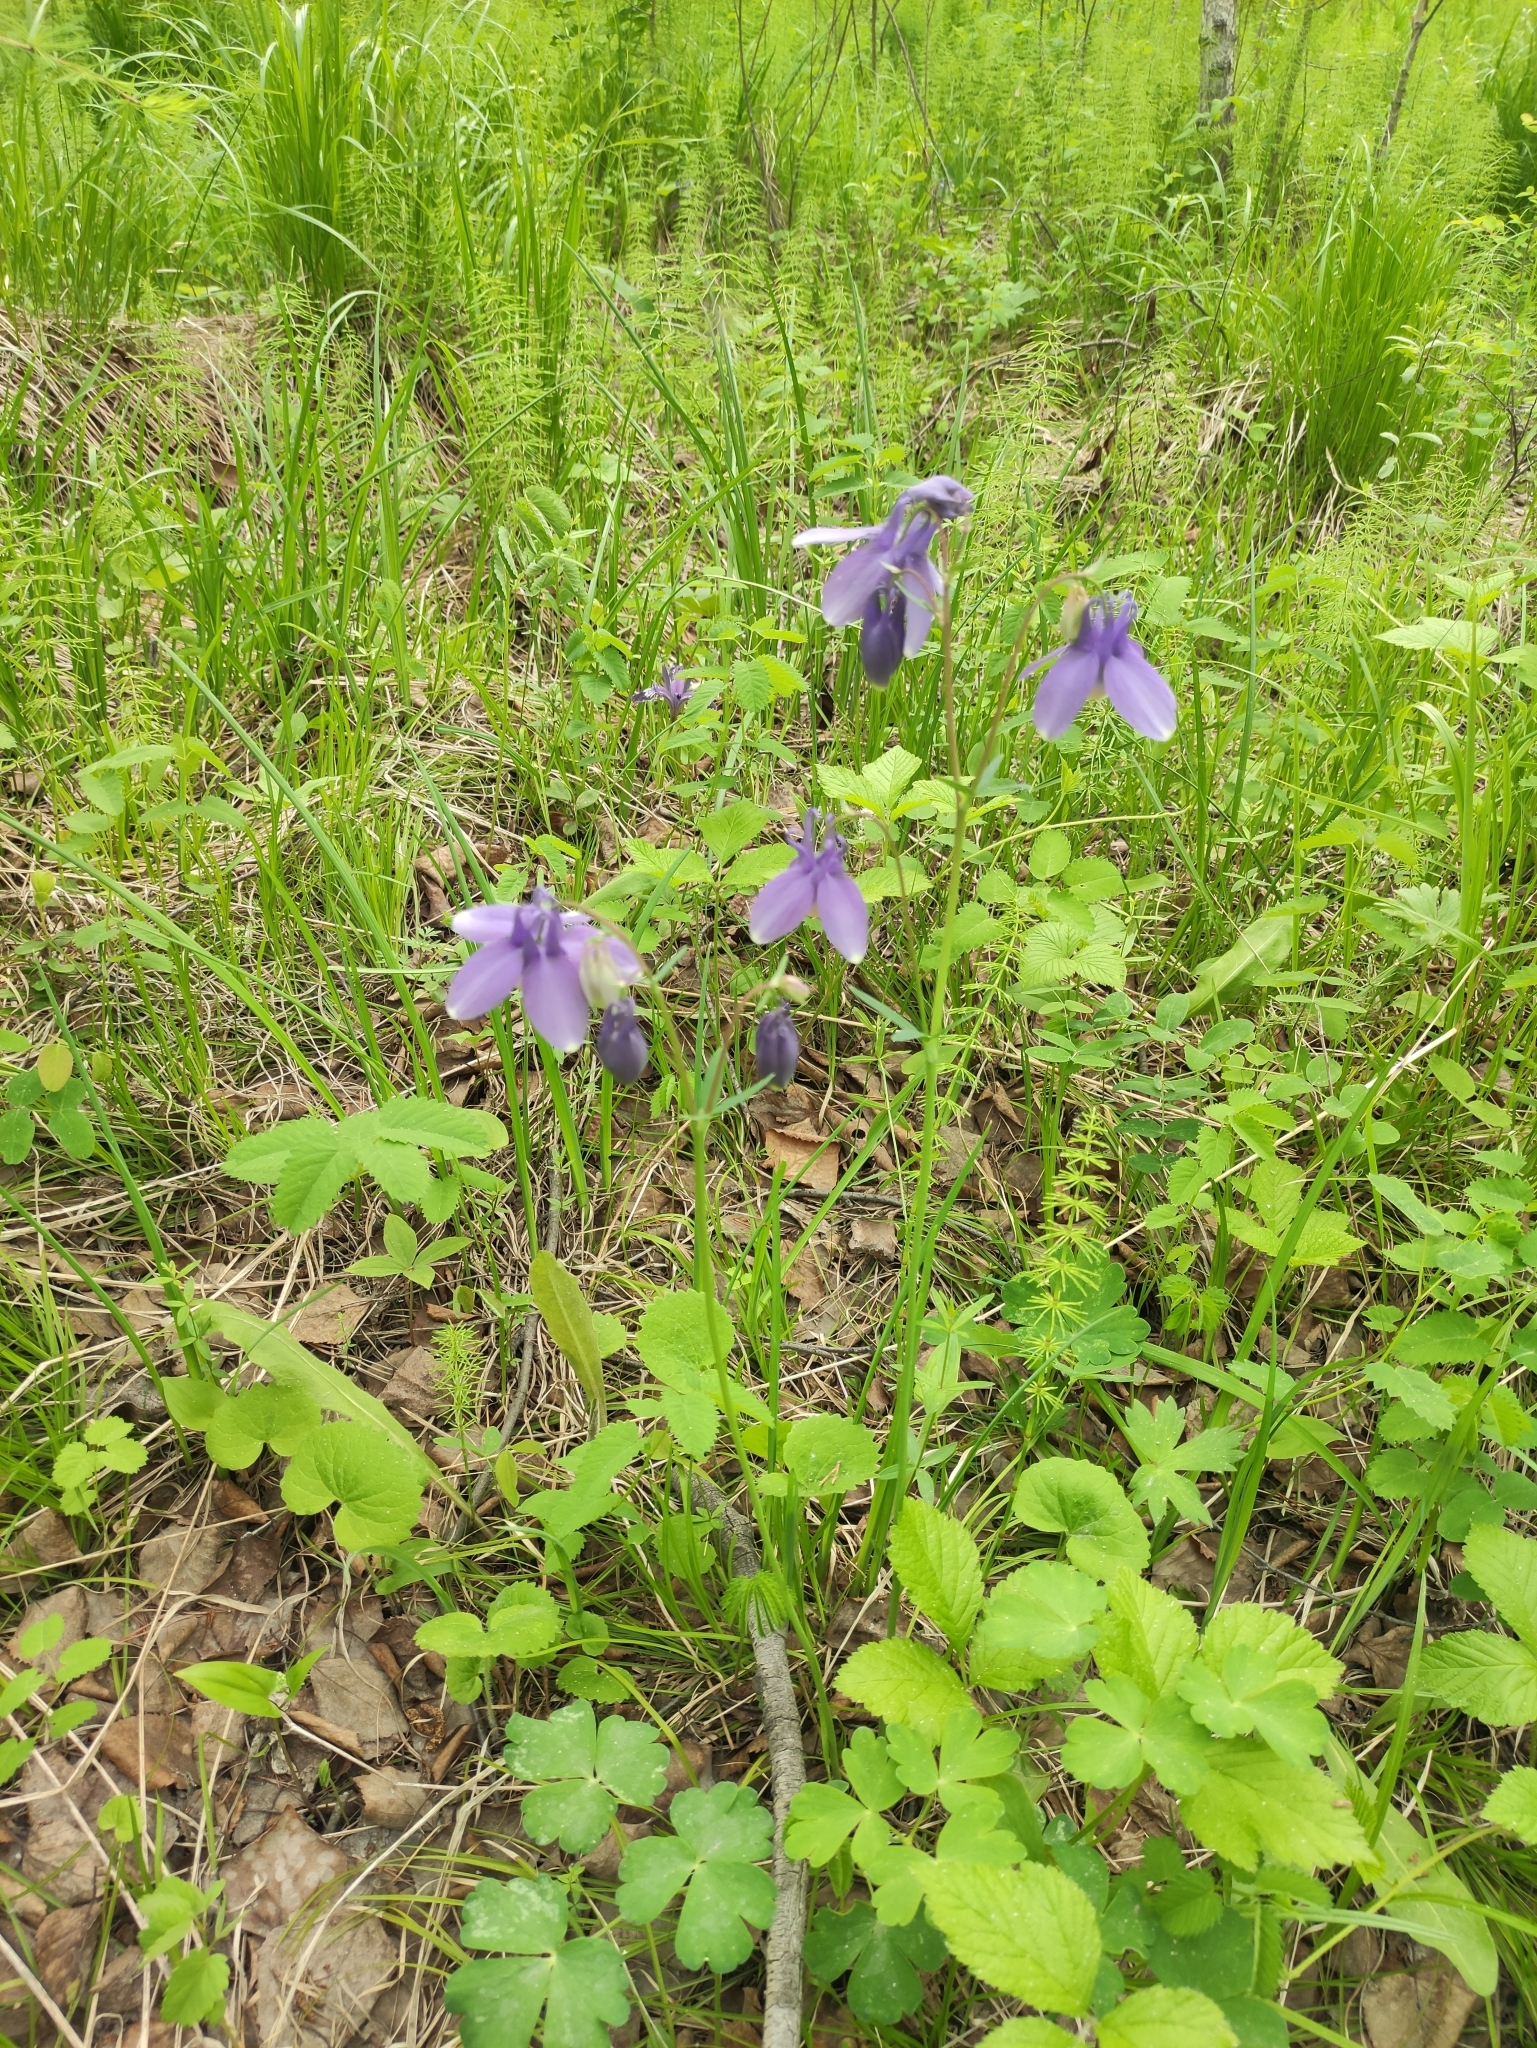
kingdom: Plantae
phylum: Tracheophyta
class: Magnoliopsida
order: Ranunculales
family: Ranunculaceae
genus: Aquilegia
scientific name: Aquilegia sibirica
